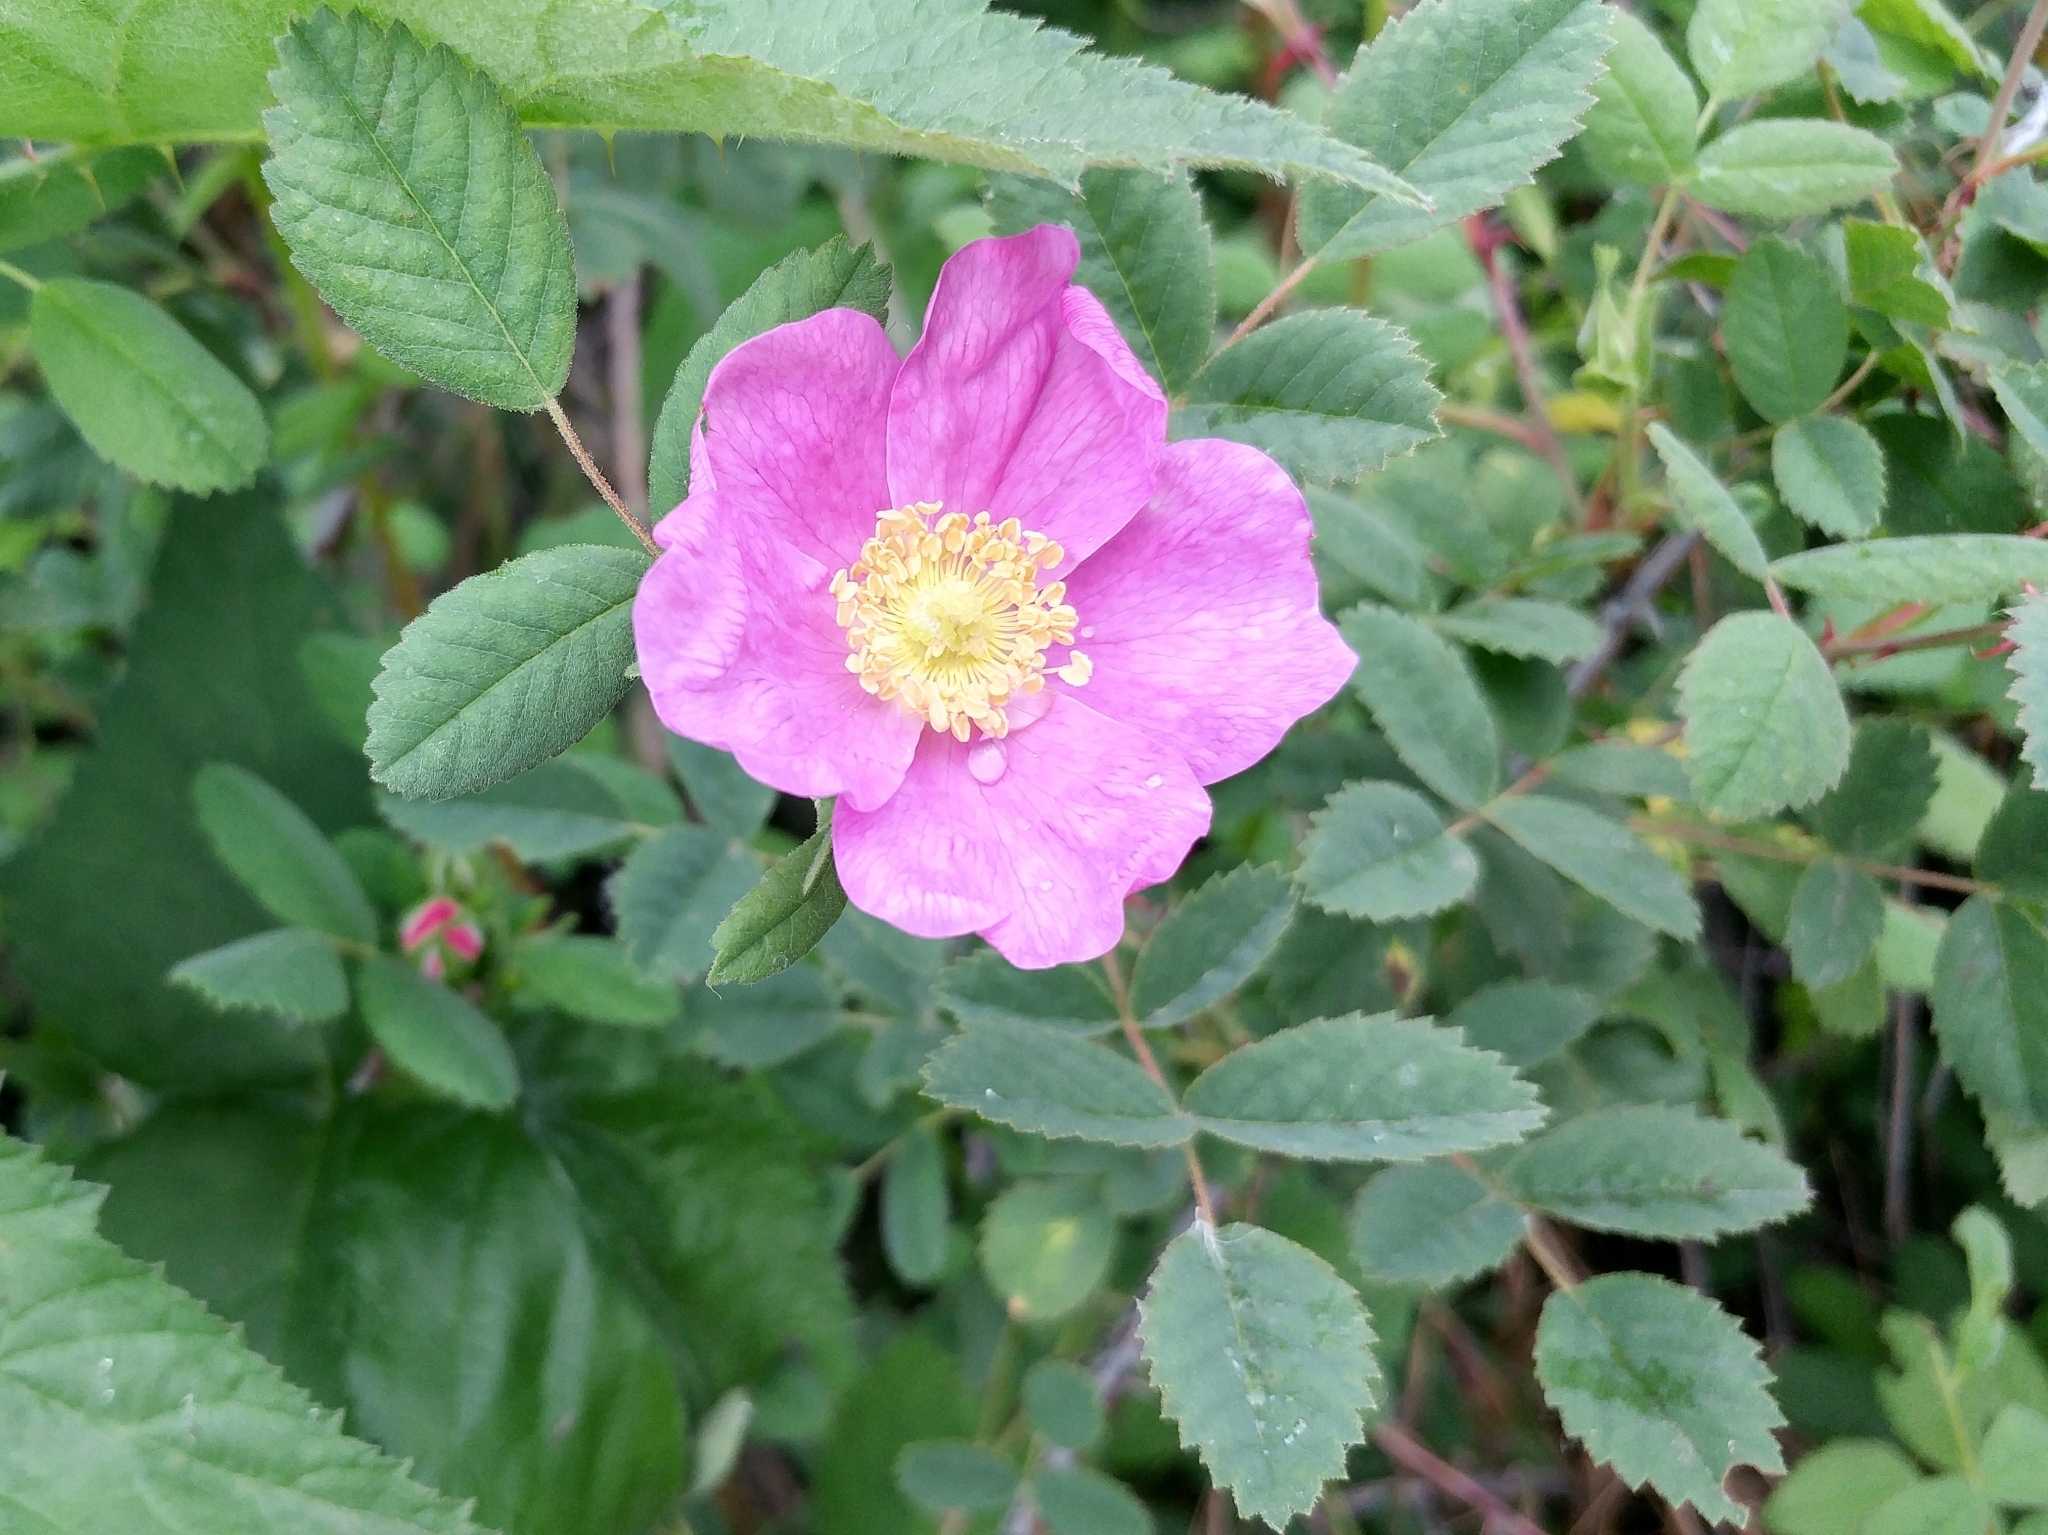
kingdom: Plantae
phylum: Tracheophyta
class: Magnoliopsida
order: Rosales
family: Rosaceae
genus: Rosa
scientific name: Rosa californica
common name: California rose
